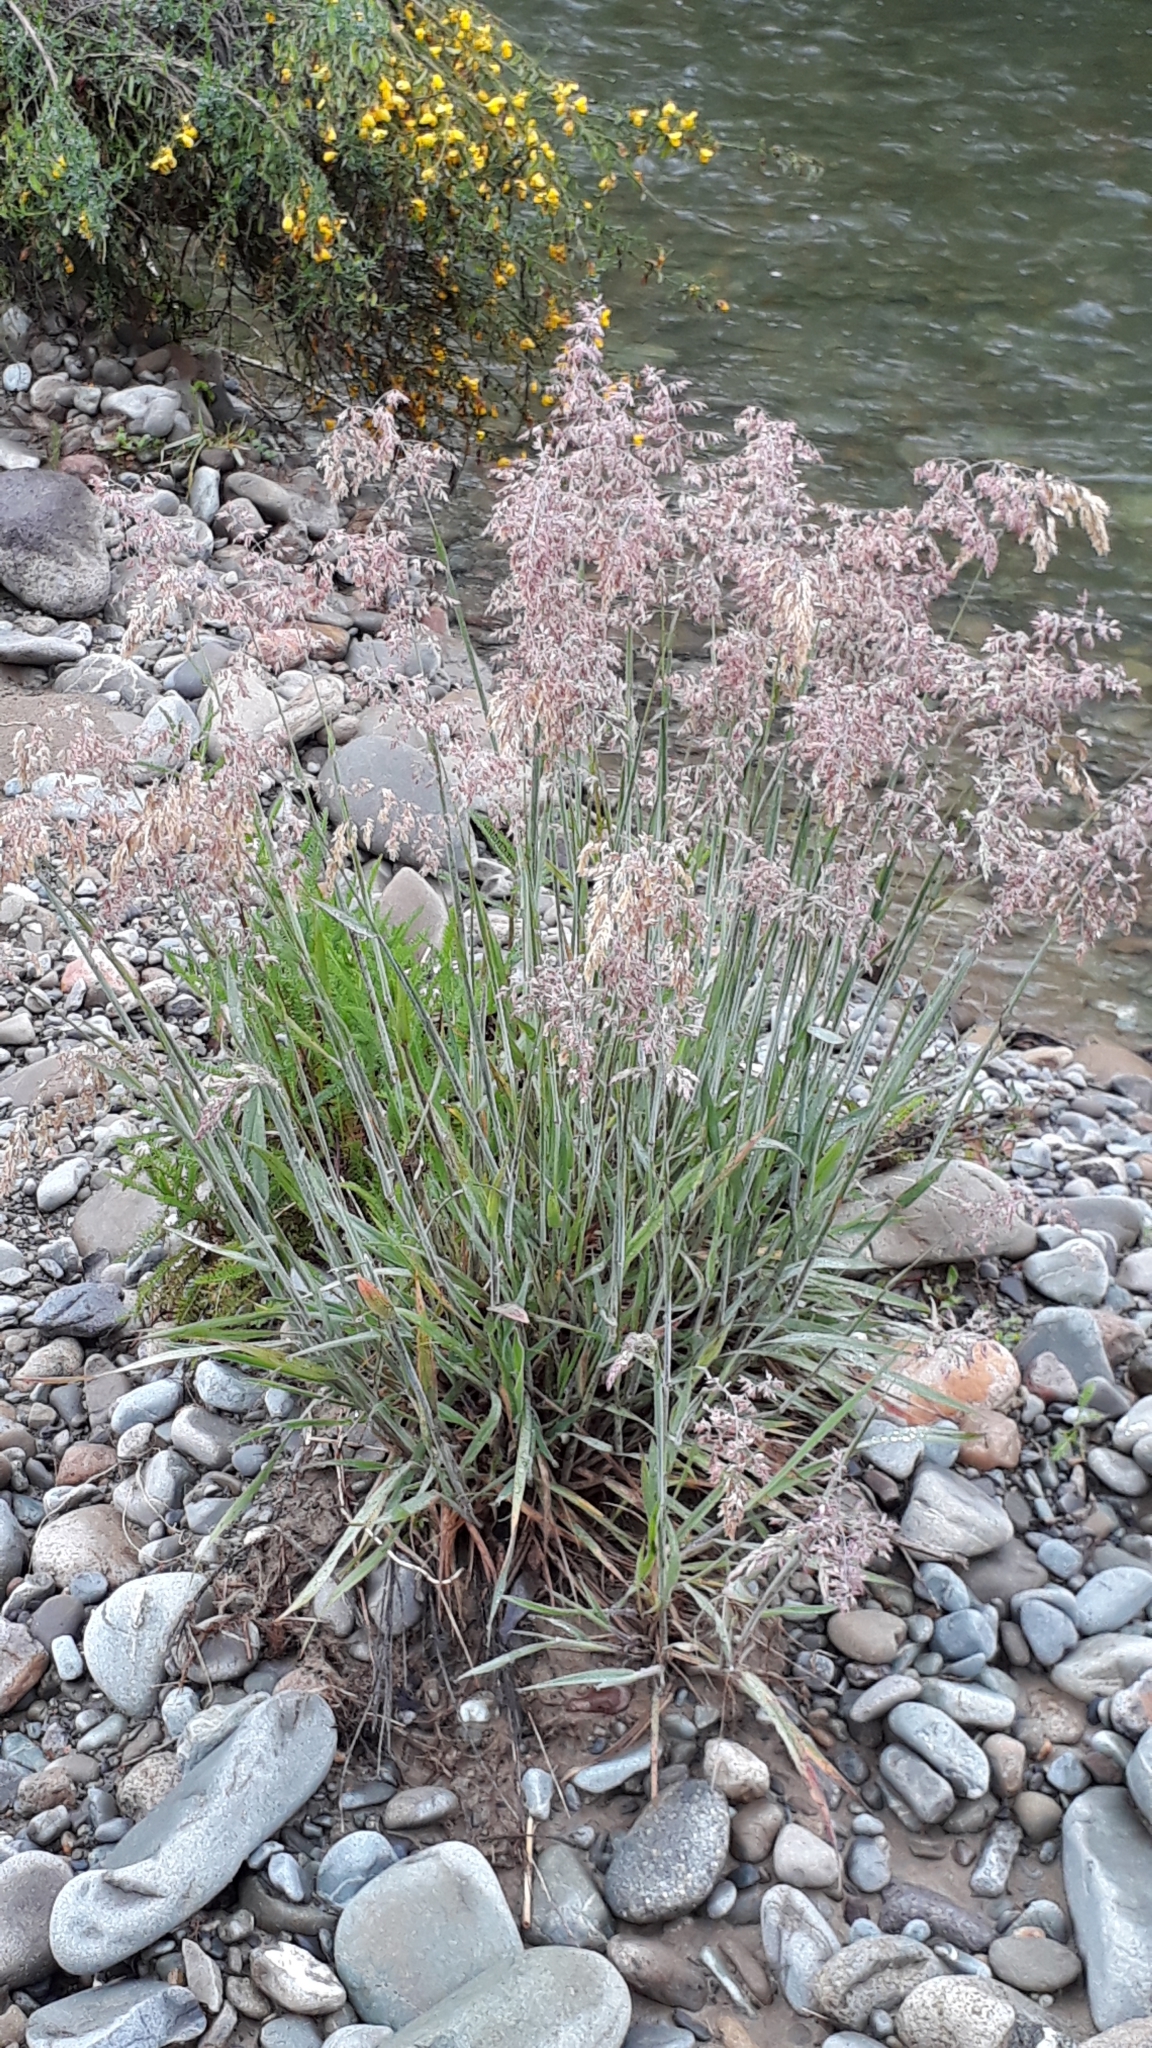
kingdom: Plantae
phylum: Tracheophyta
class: Liliopsida
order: Poales
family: Poaceae
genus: Holcus
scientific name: Holcus lanatus
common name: Yorkshire-fog
